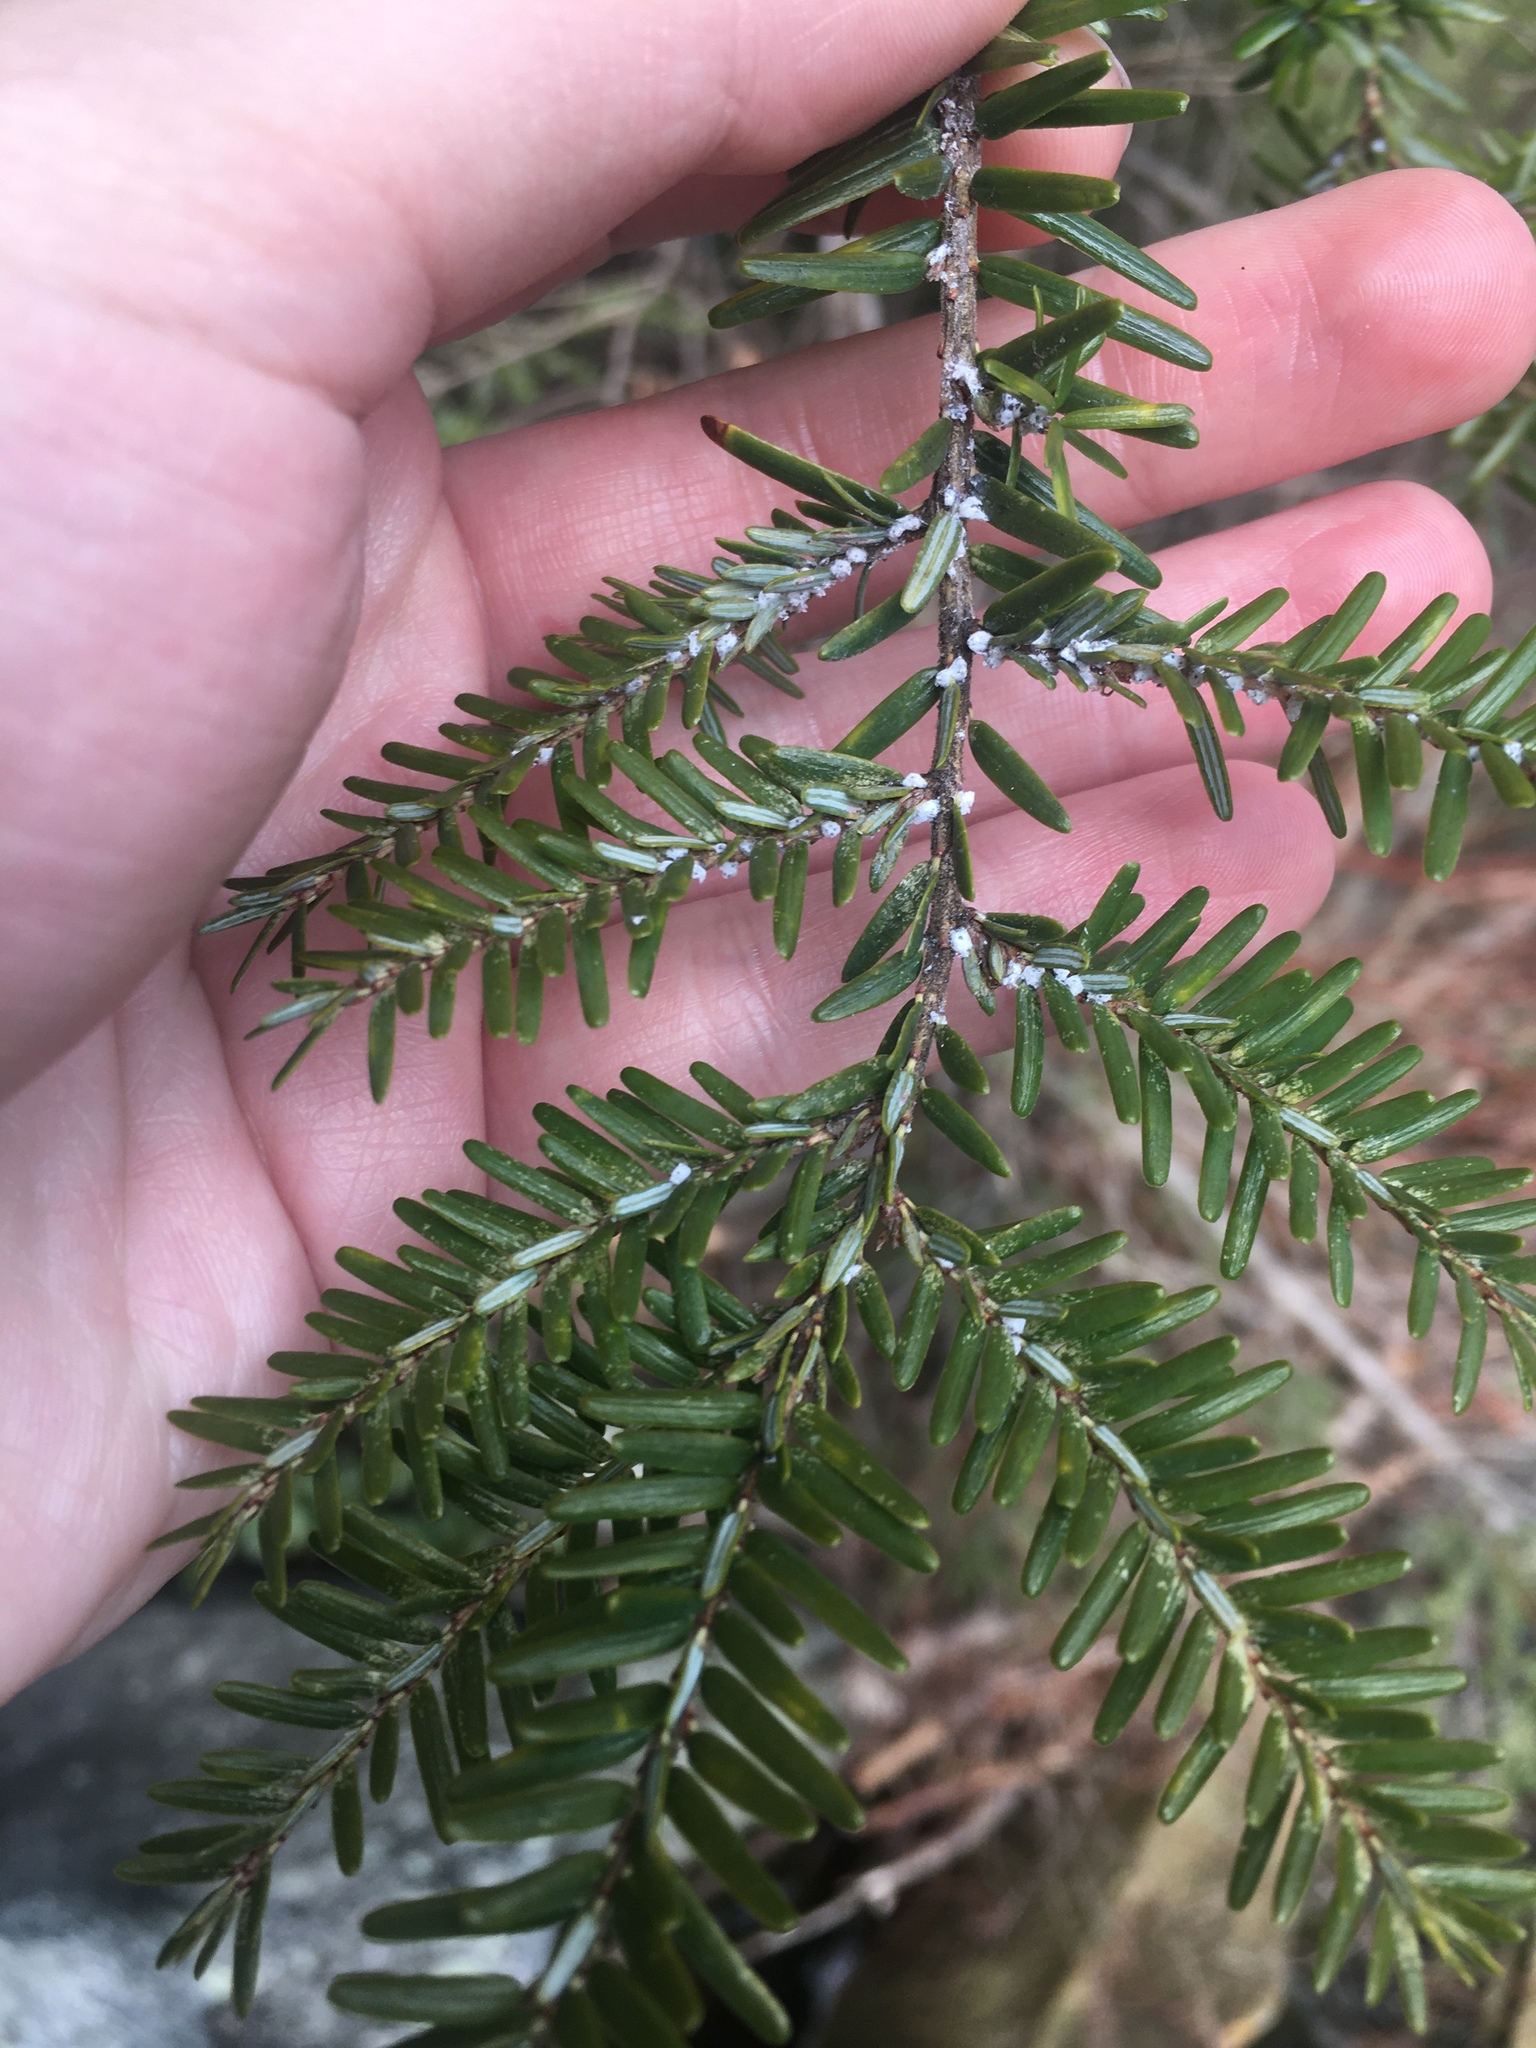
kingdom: Animalia
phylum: Arthropoda
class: Insecta
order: Hemiptera
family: Adelgidae
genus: Adelges
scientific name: Adelges tsugae
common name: Hemlock woolly adelgid
